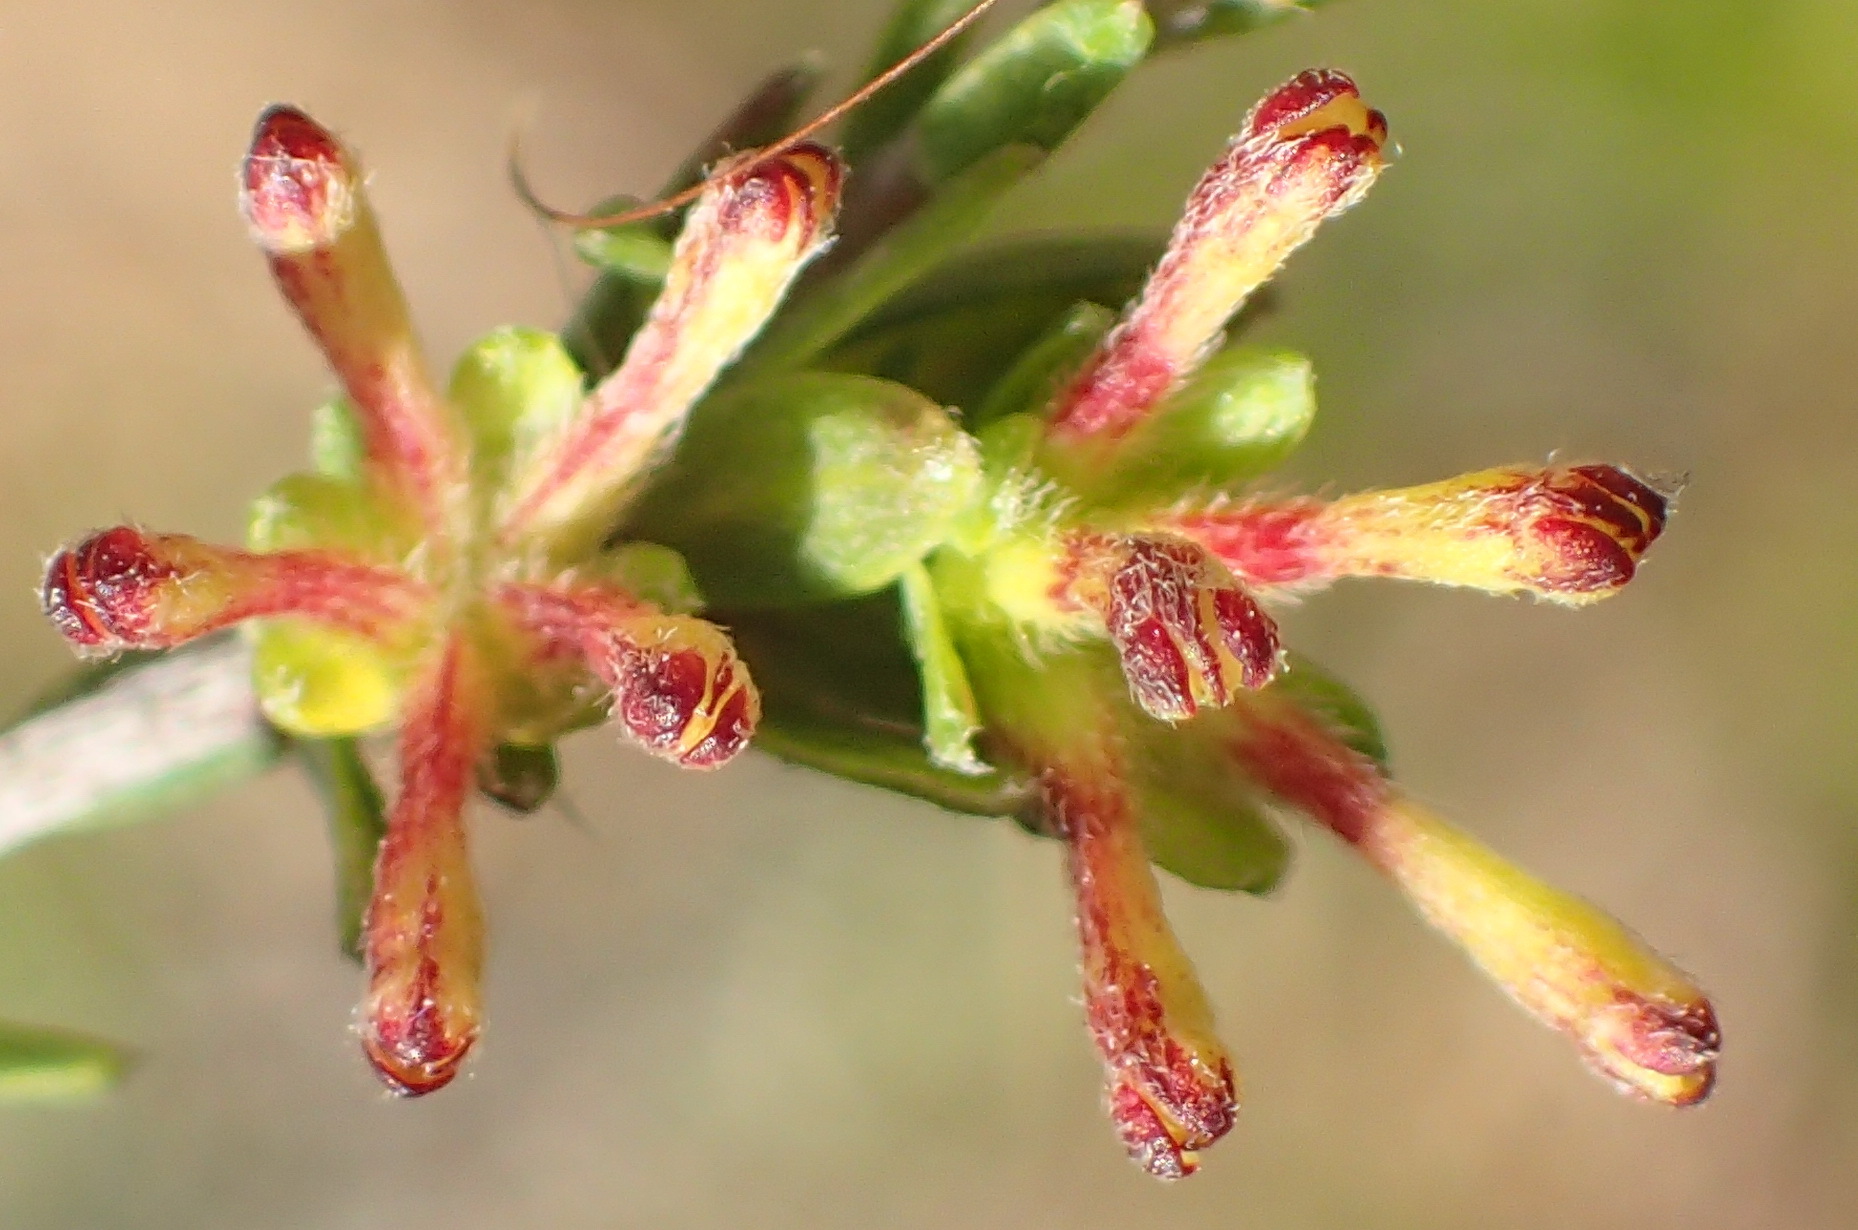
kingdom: Plantae
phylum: Tracheophyta
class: Magnoliopsida
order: Malvales
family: Thymelaeaceae
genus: Gnidia
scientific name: Gnidia squarrosa
